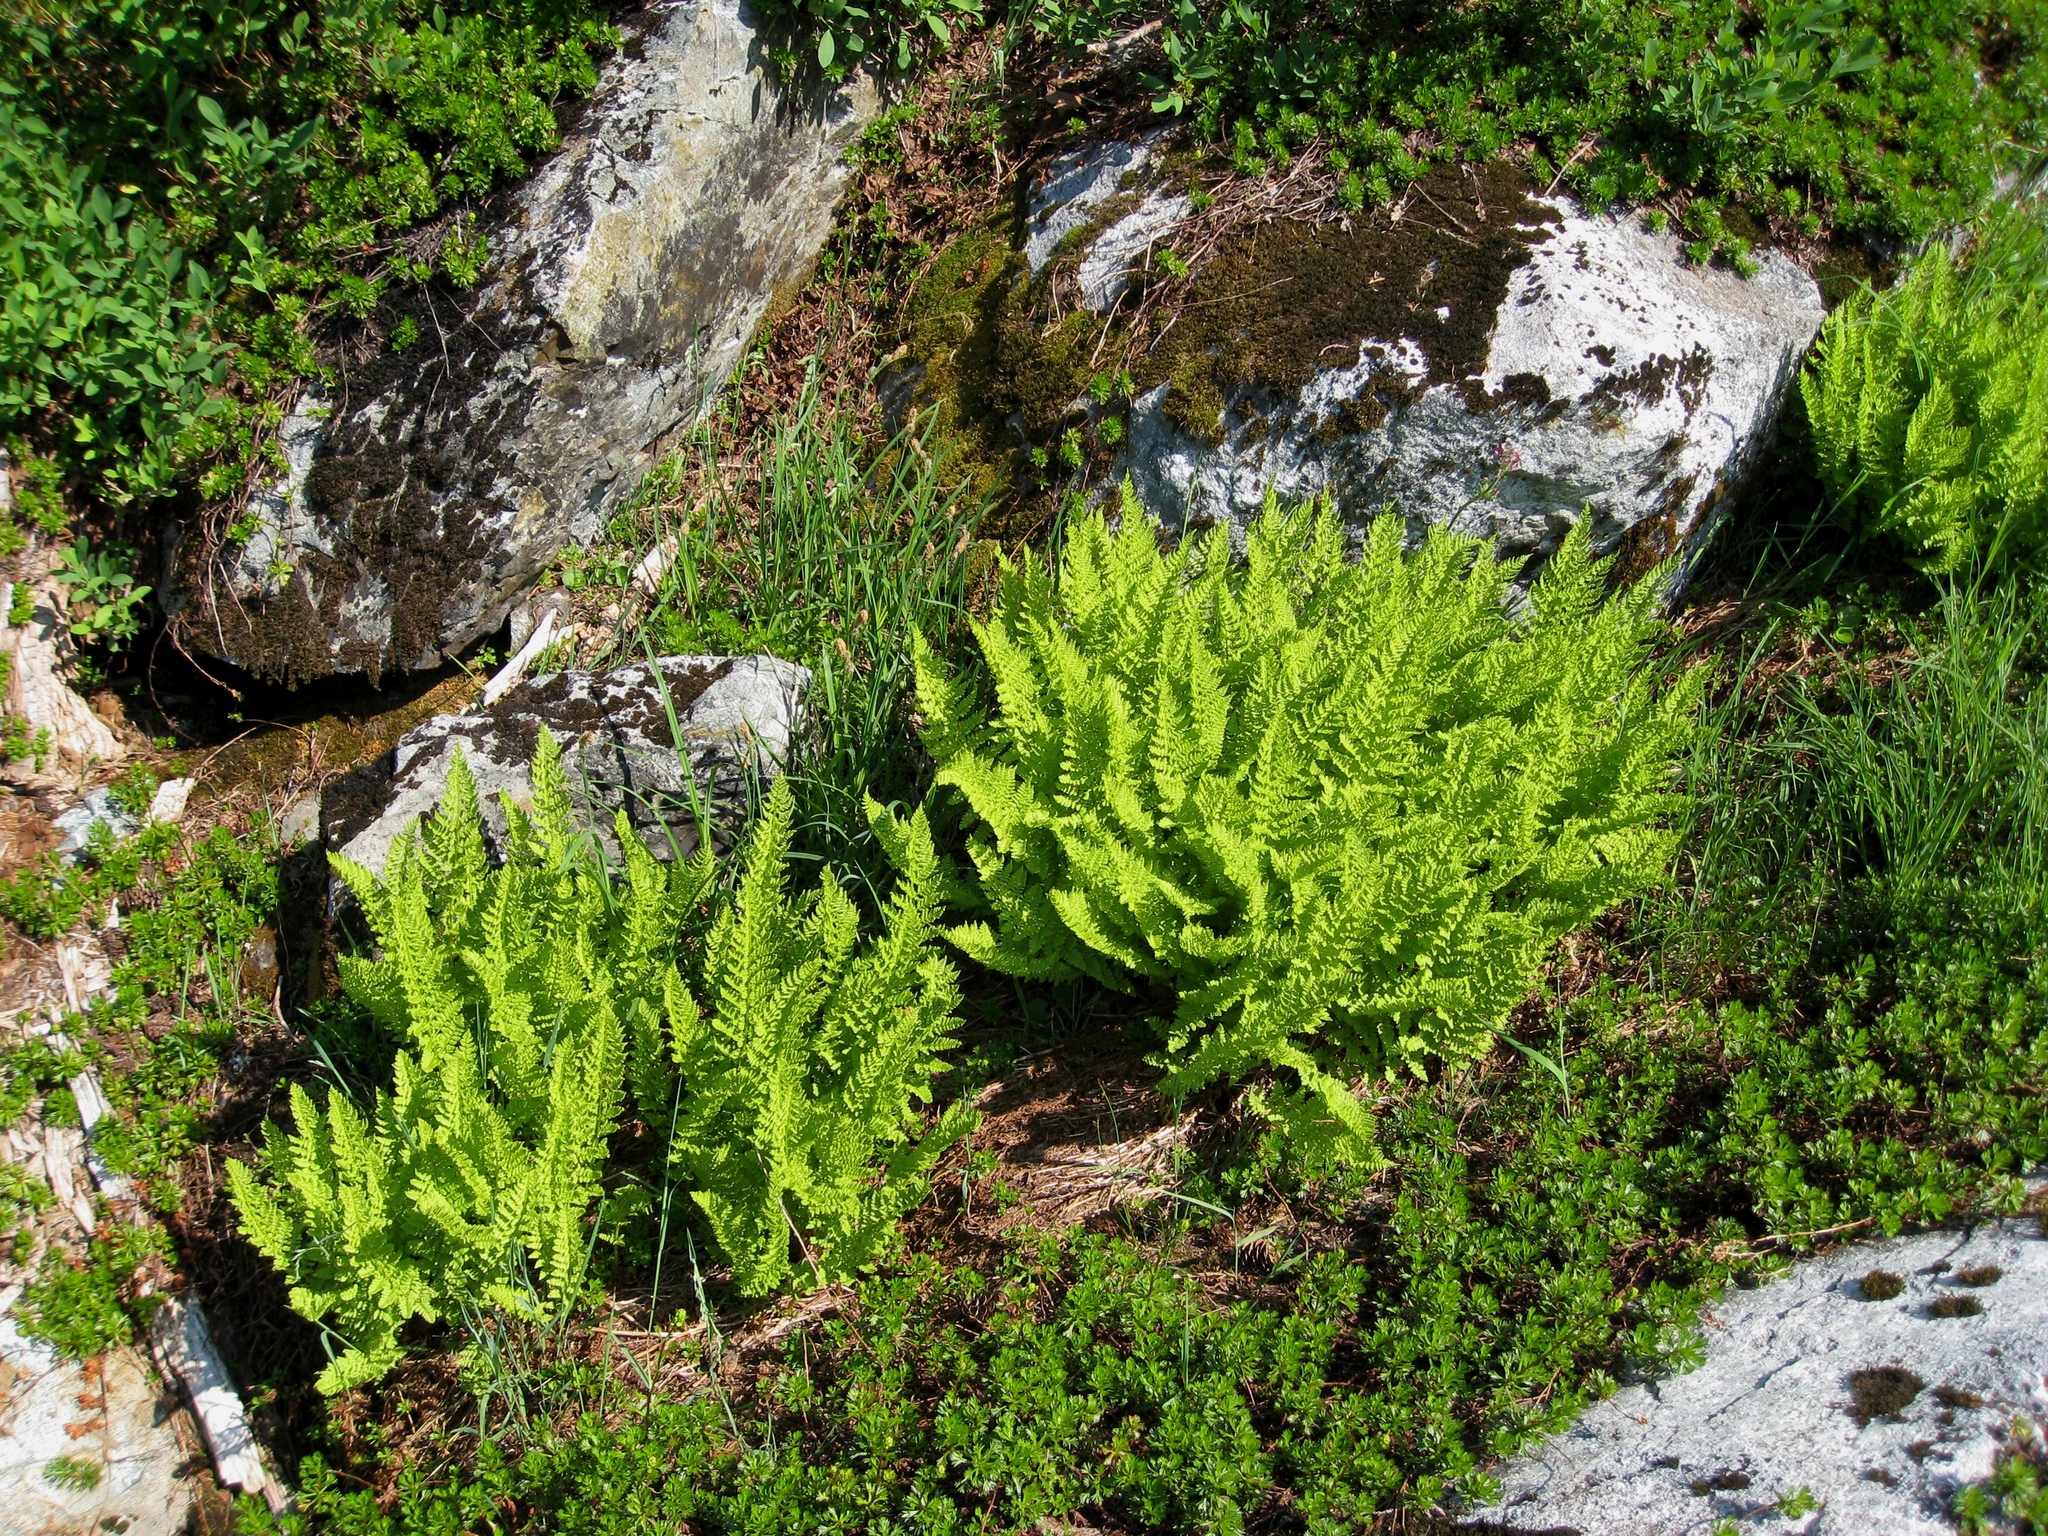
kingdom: Plantae
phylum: Tracheophyta
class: Polypodiopsida
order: Polypodiales
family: Athyriaceae
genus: Athyrium
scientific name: Athyrium americanum
